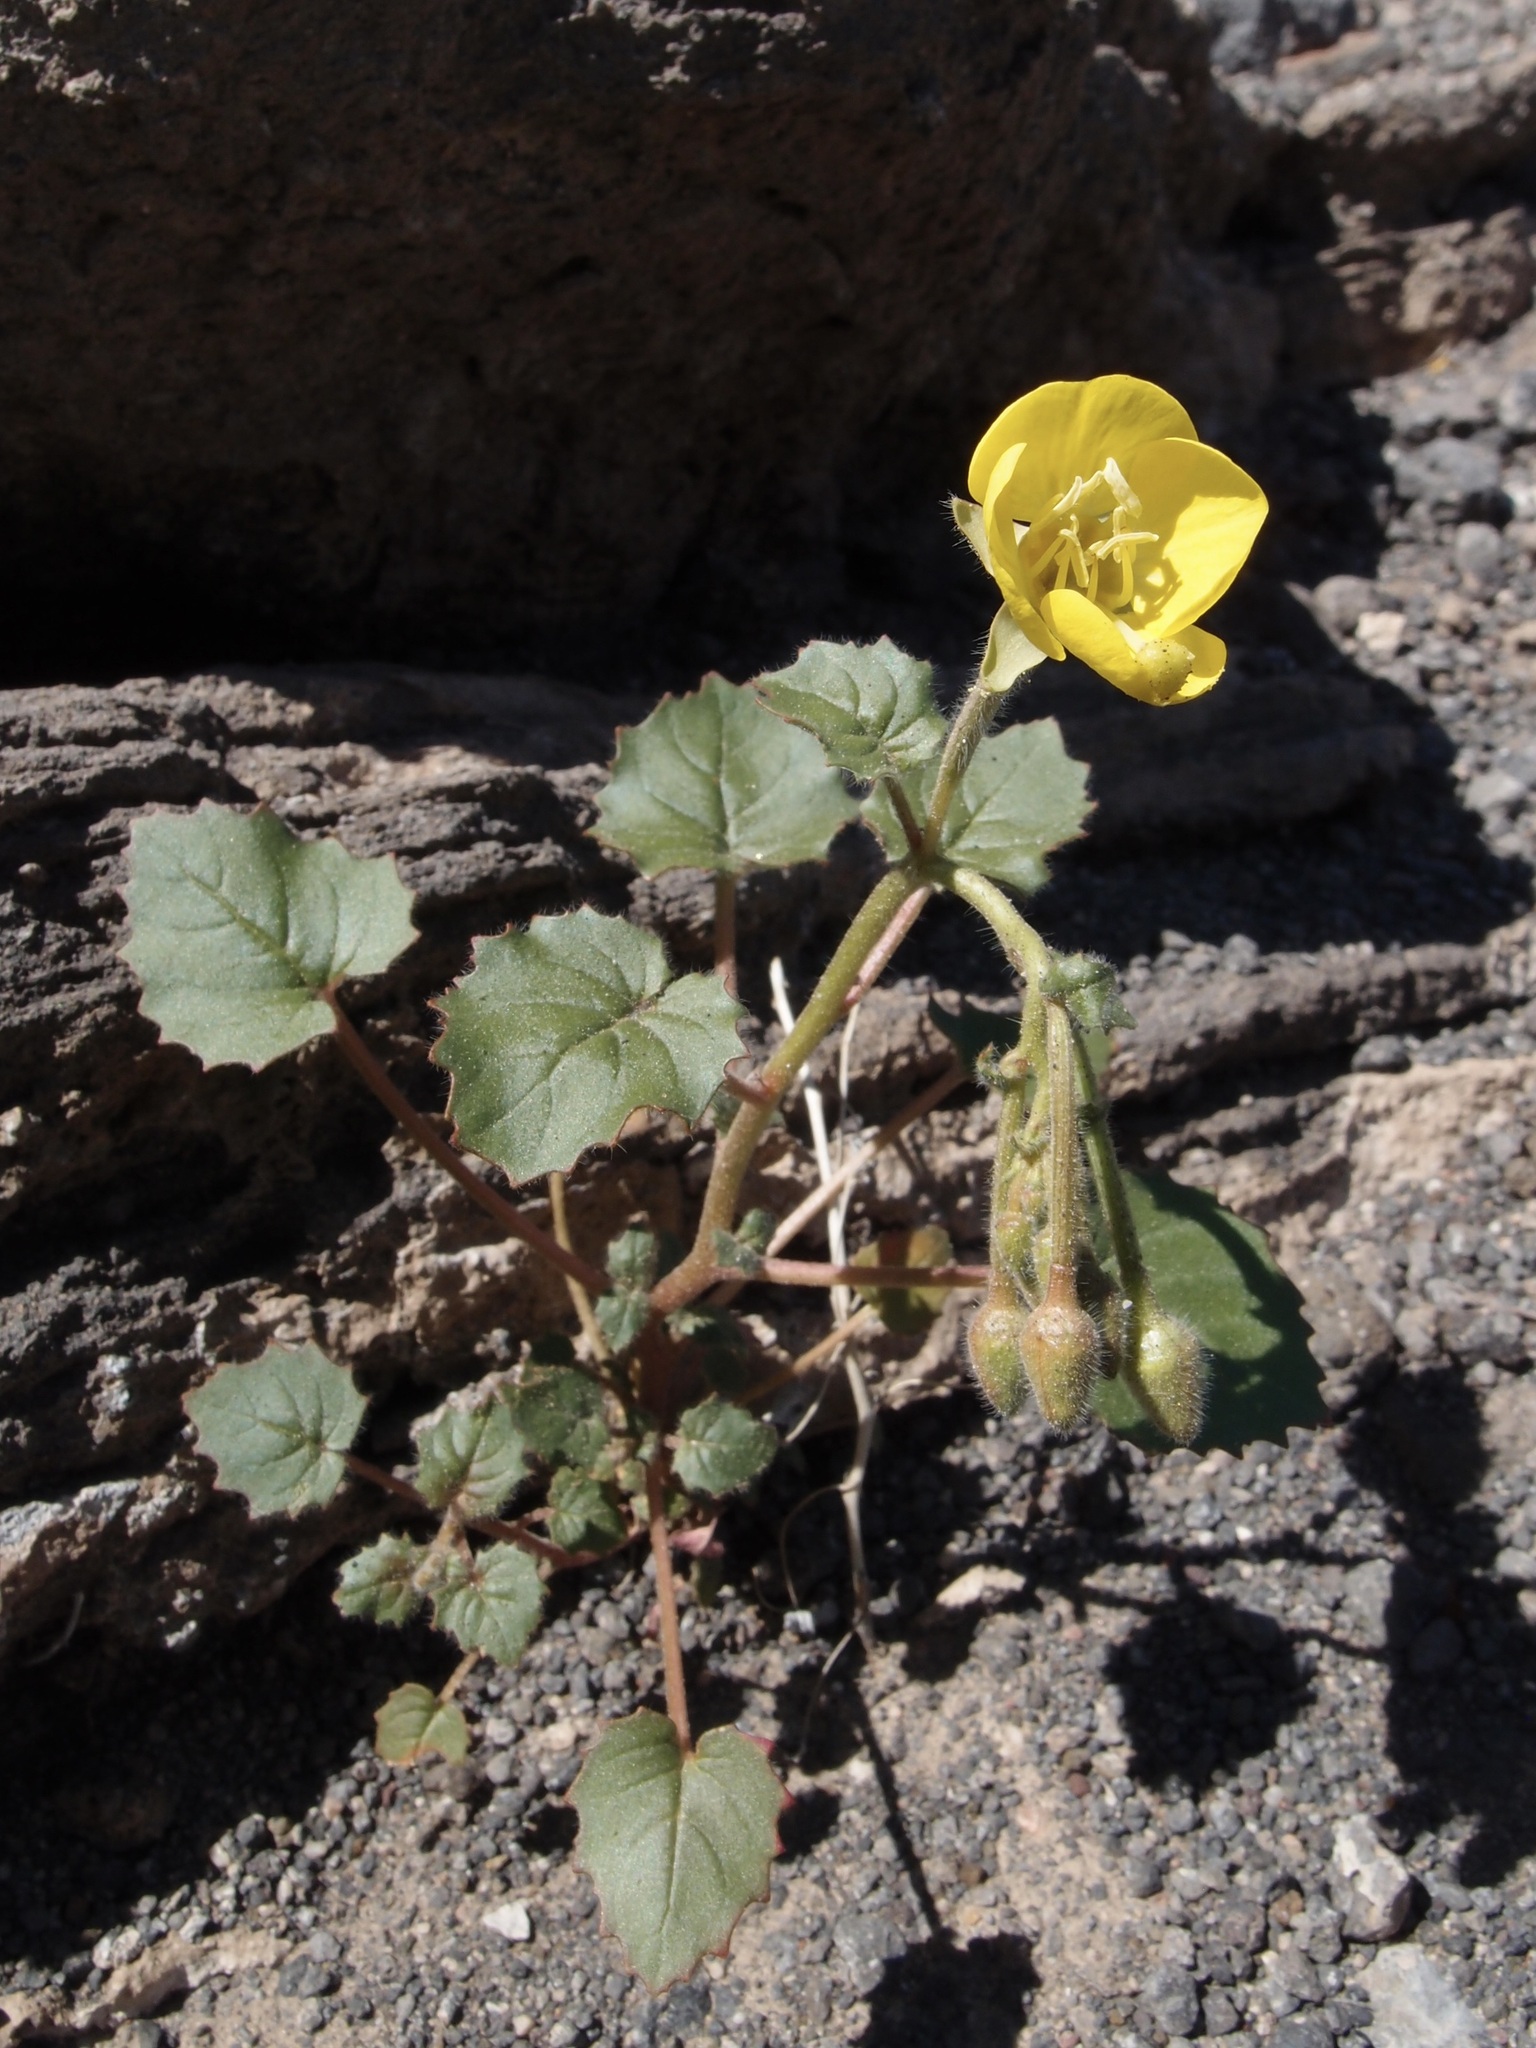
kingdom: Plantae
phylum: Tracheophyta
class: Magnoliopsida
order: Myrtales
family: Onagraceae
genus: Chylismia
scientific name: Chylismia cardiophylla
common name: Heartleaf suncup
